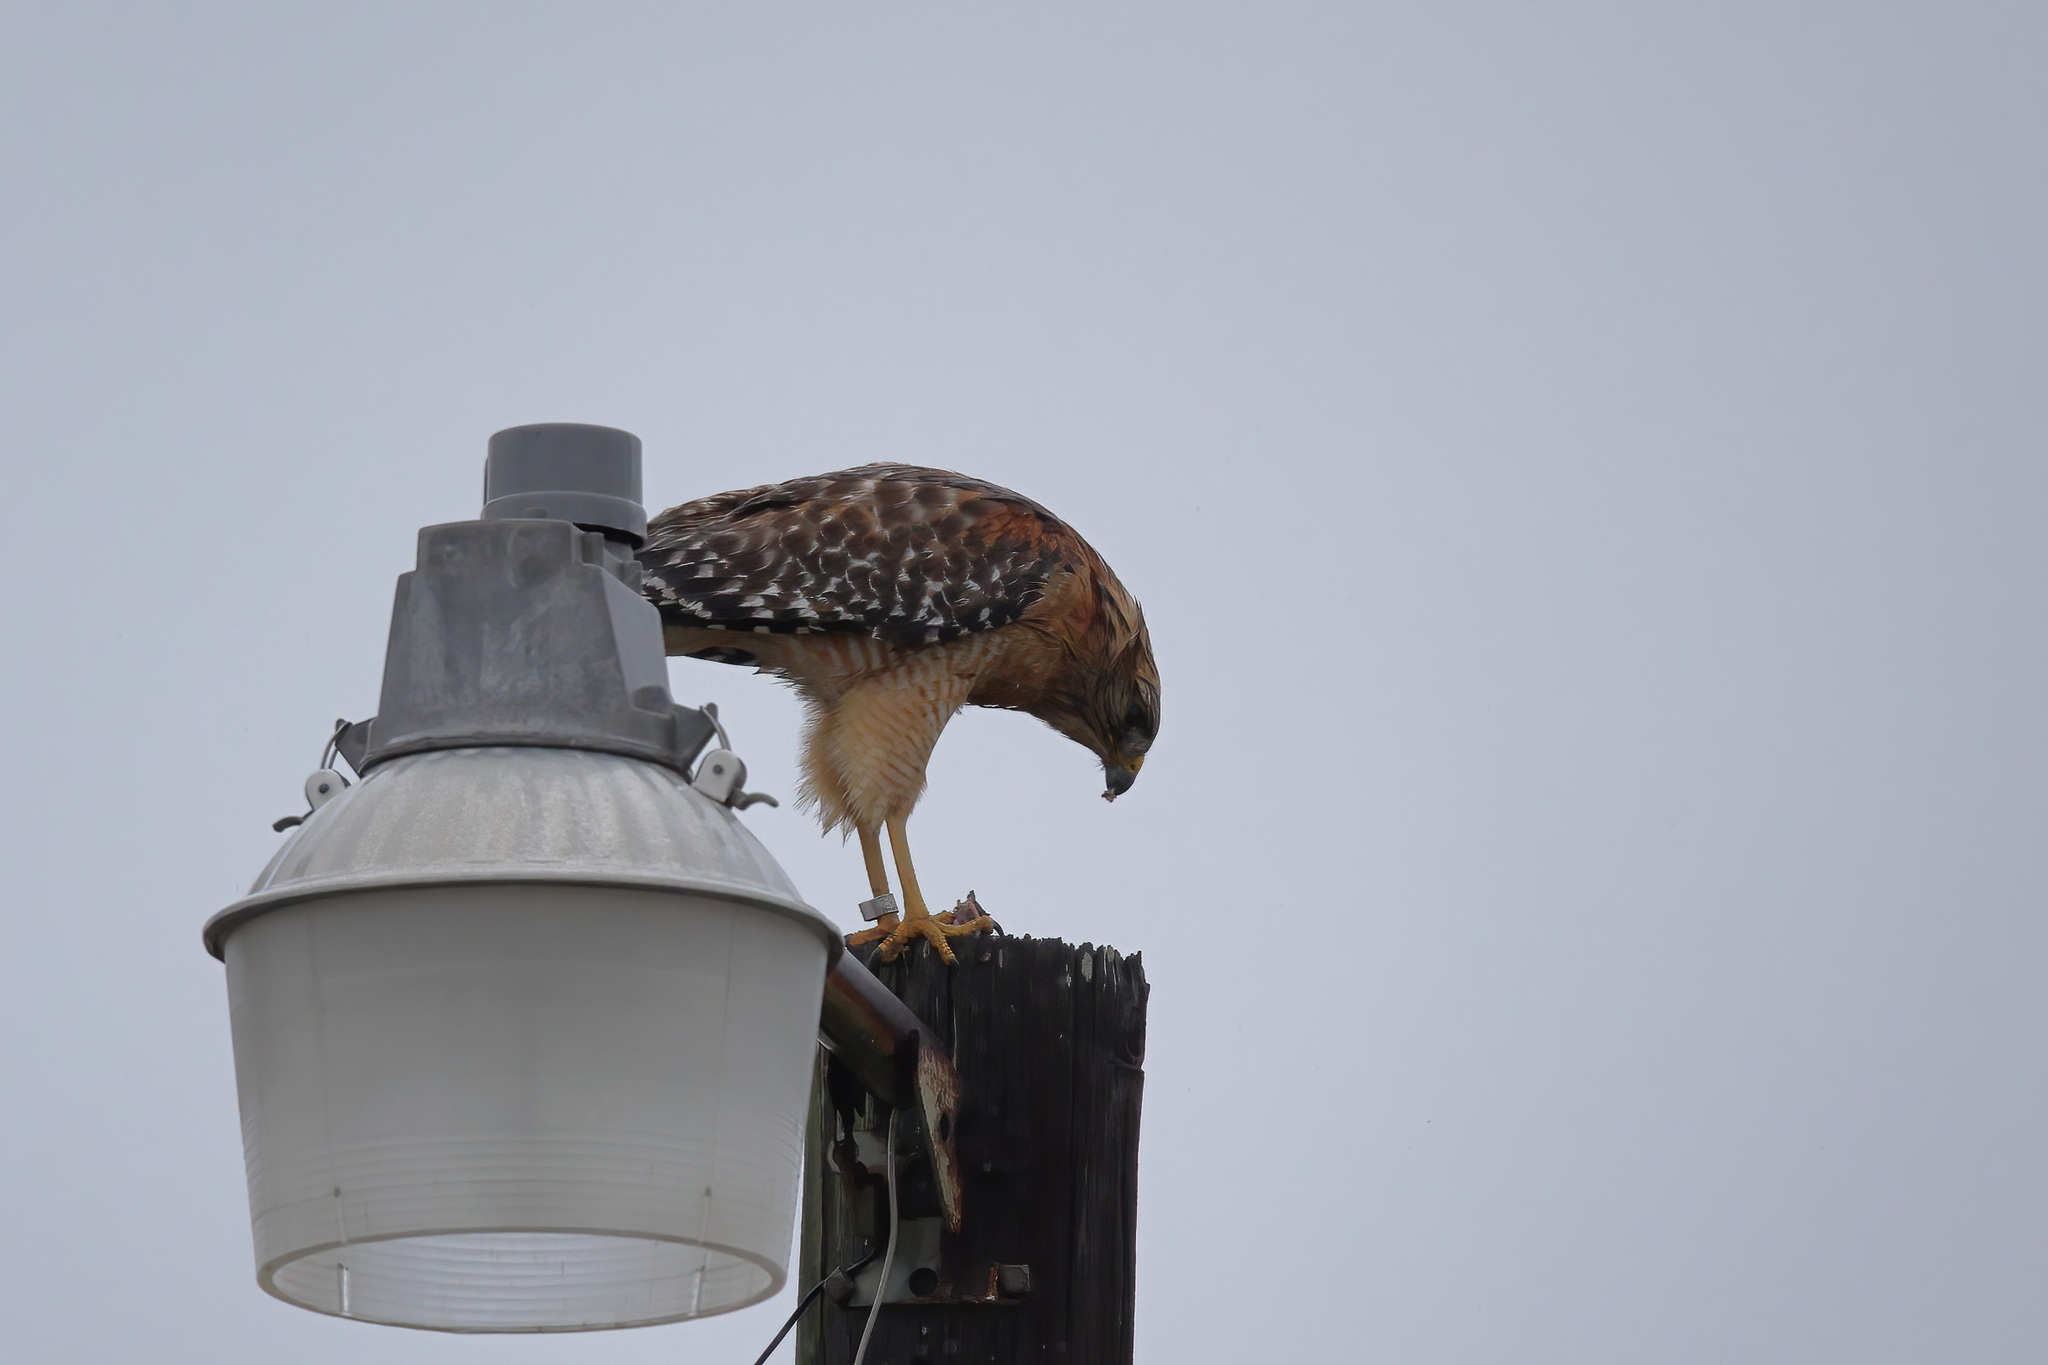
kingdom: Animalia
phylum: Chordata
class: Aves
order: Accipitriformes
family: Accipitridae
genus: Buteo
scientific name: Buteo lineatus
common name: Red-shouldered hawk
